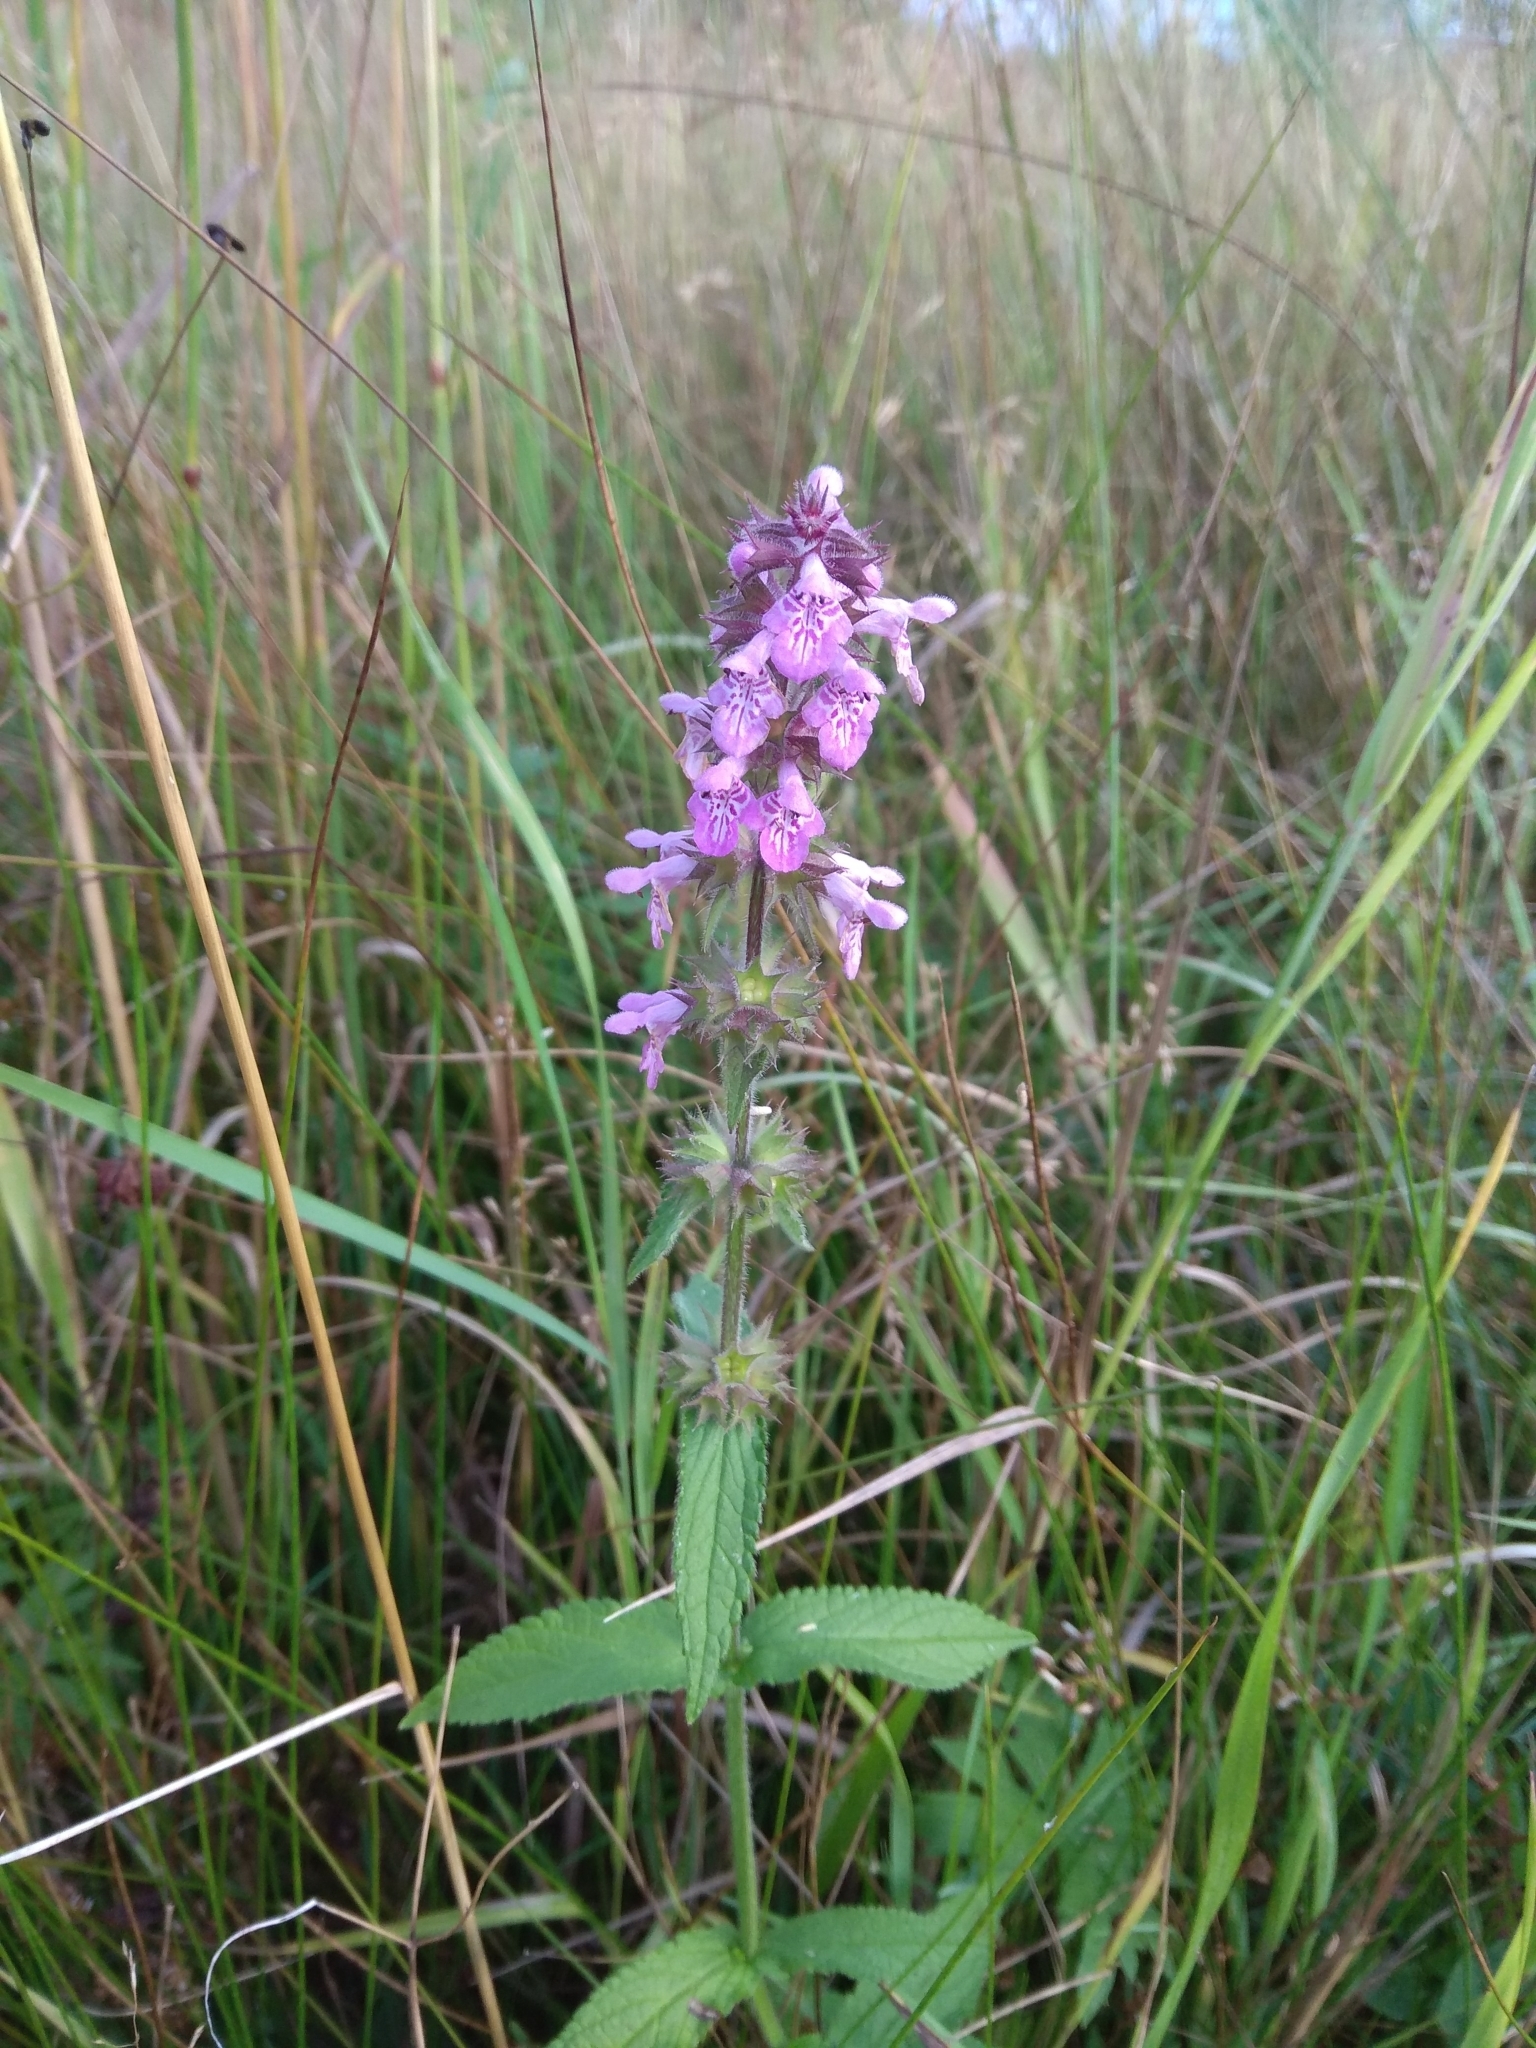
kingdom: Plantae
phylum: Tracheophyta
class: Magnoliopsida
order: Lamiales
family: Lamiaceae
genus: Stachys
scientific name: Stachys palustris
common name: Marsh woundwort
